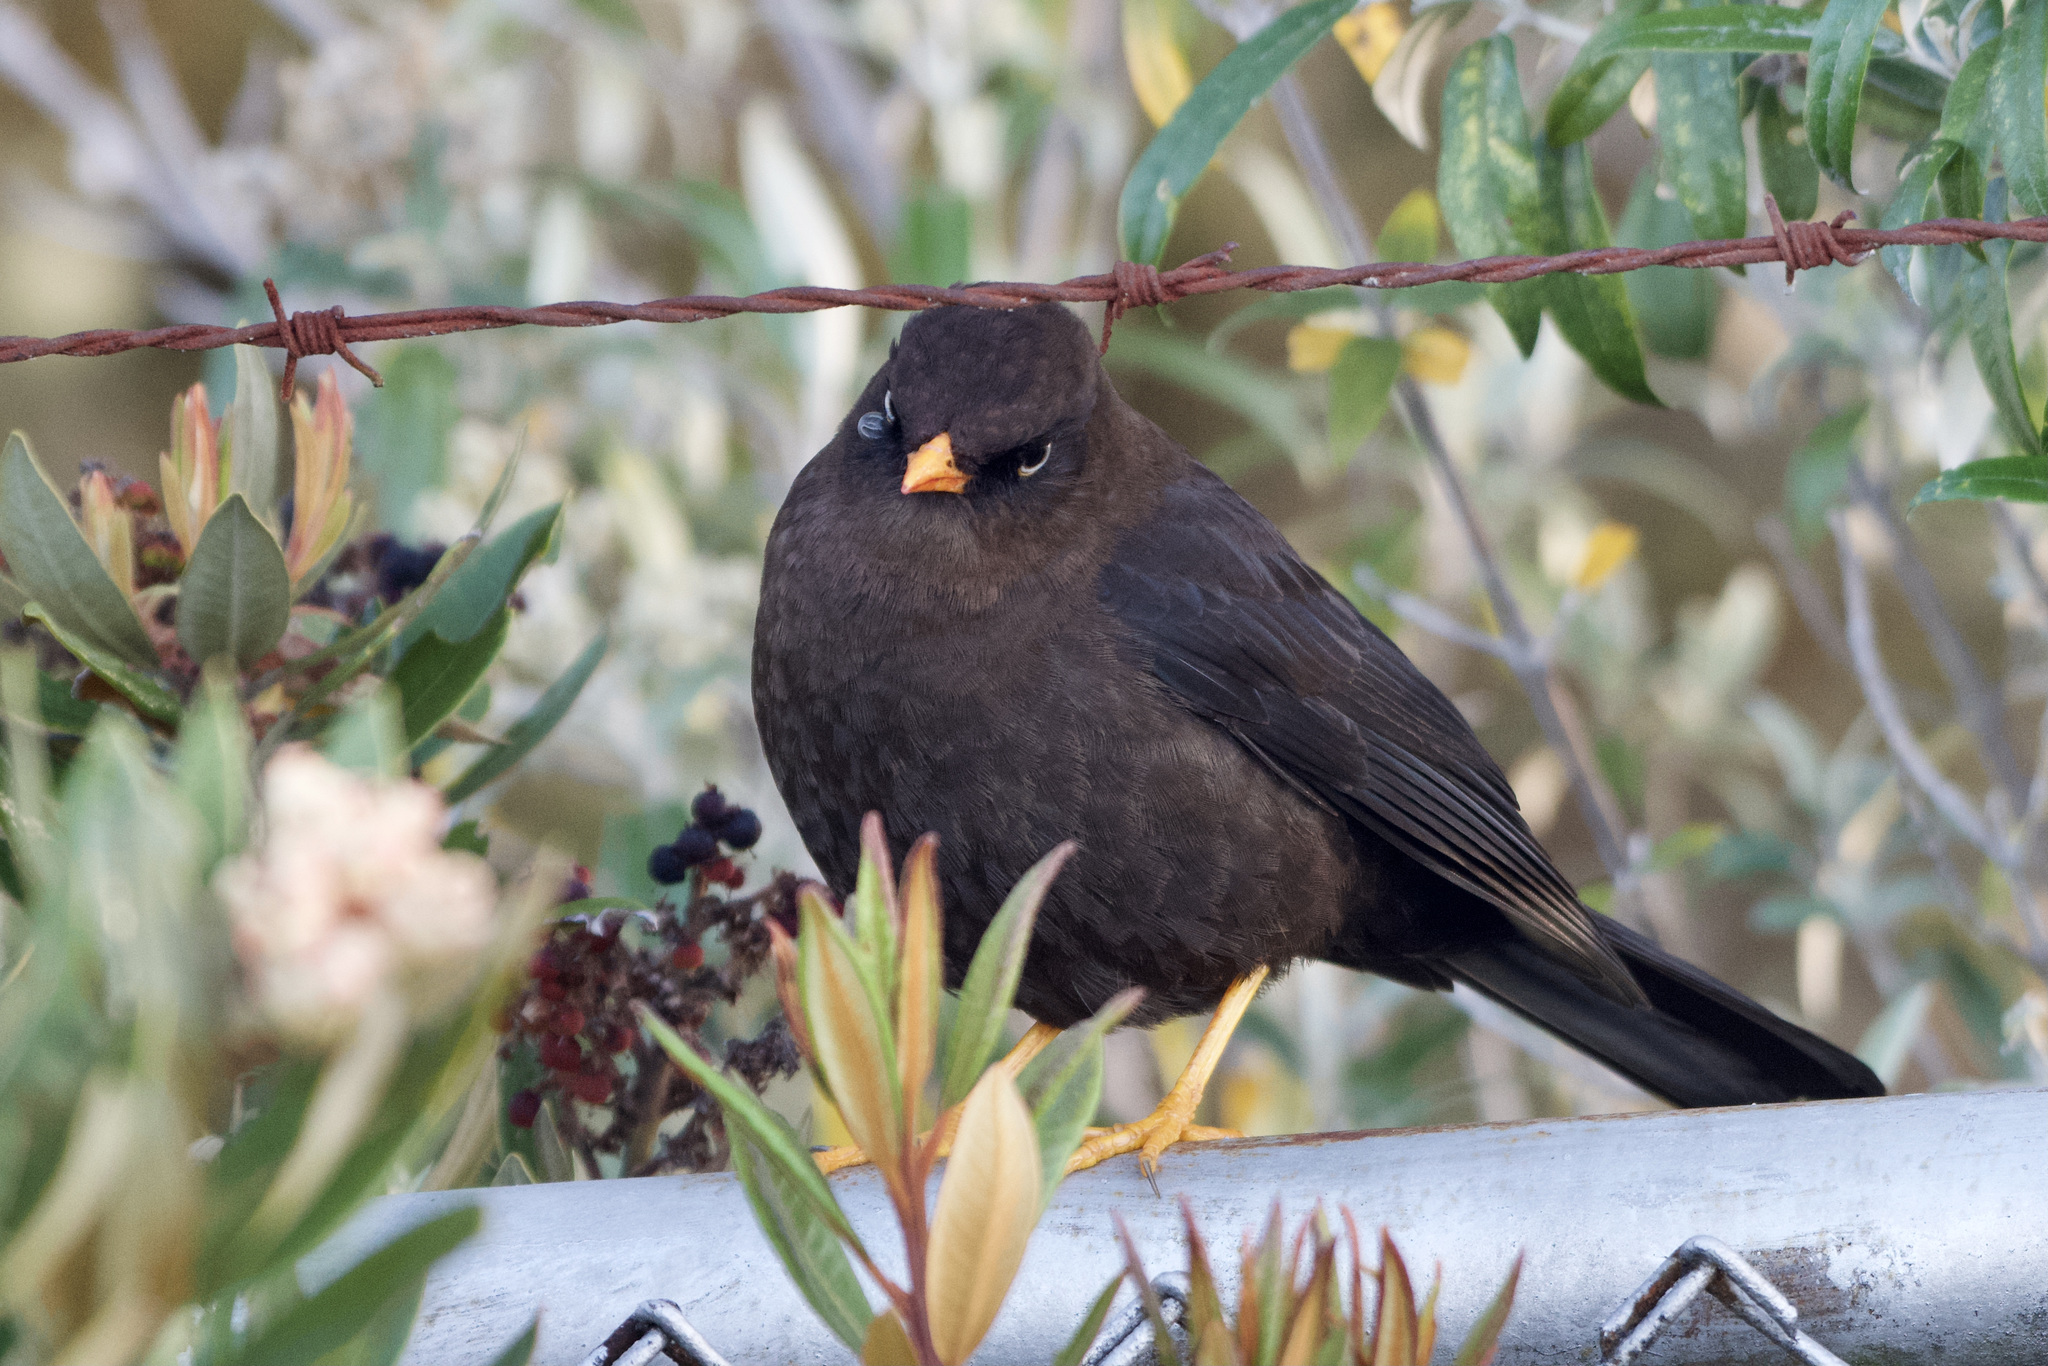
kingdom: Animalia
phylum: Chordata
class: Aves
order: Passeriformes
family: Turdidae
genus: Turdus
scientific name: Turdus nigrescens
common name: Sooty thrush
